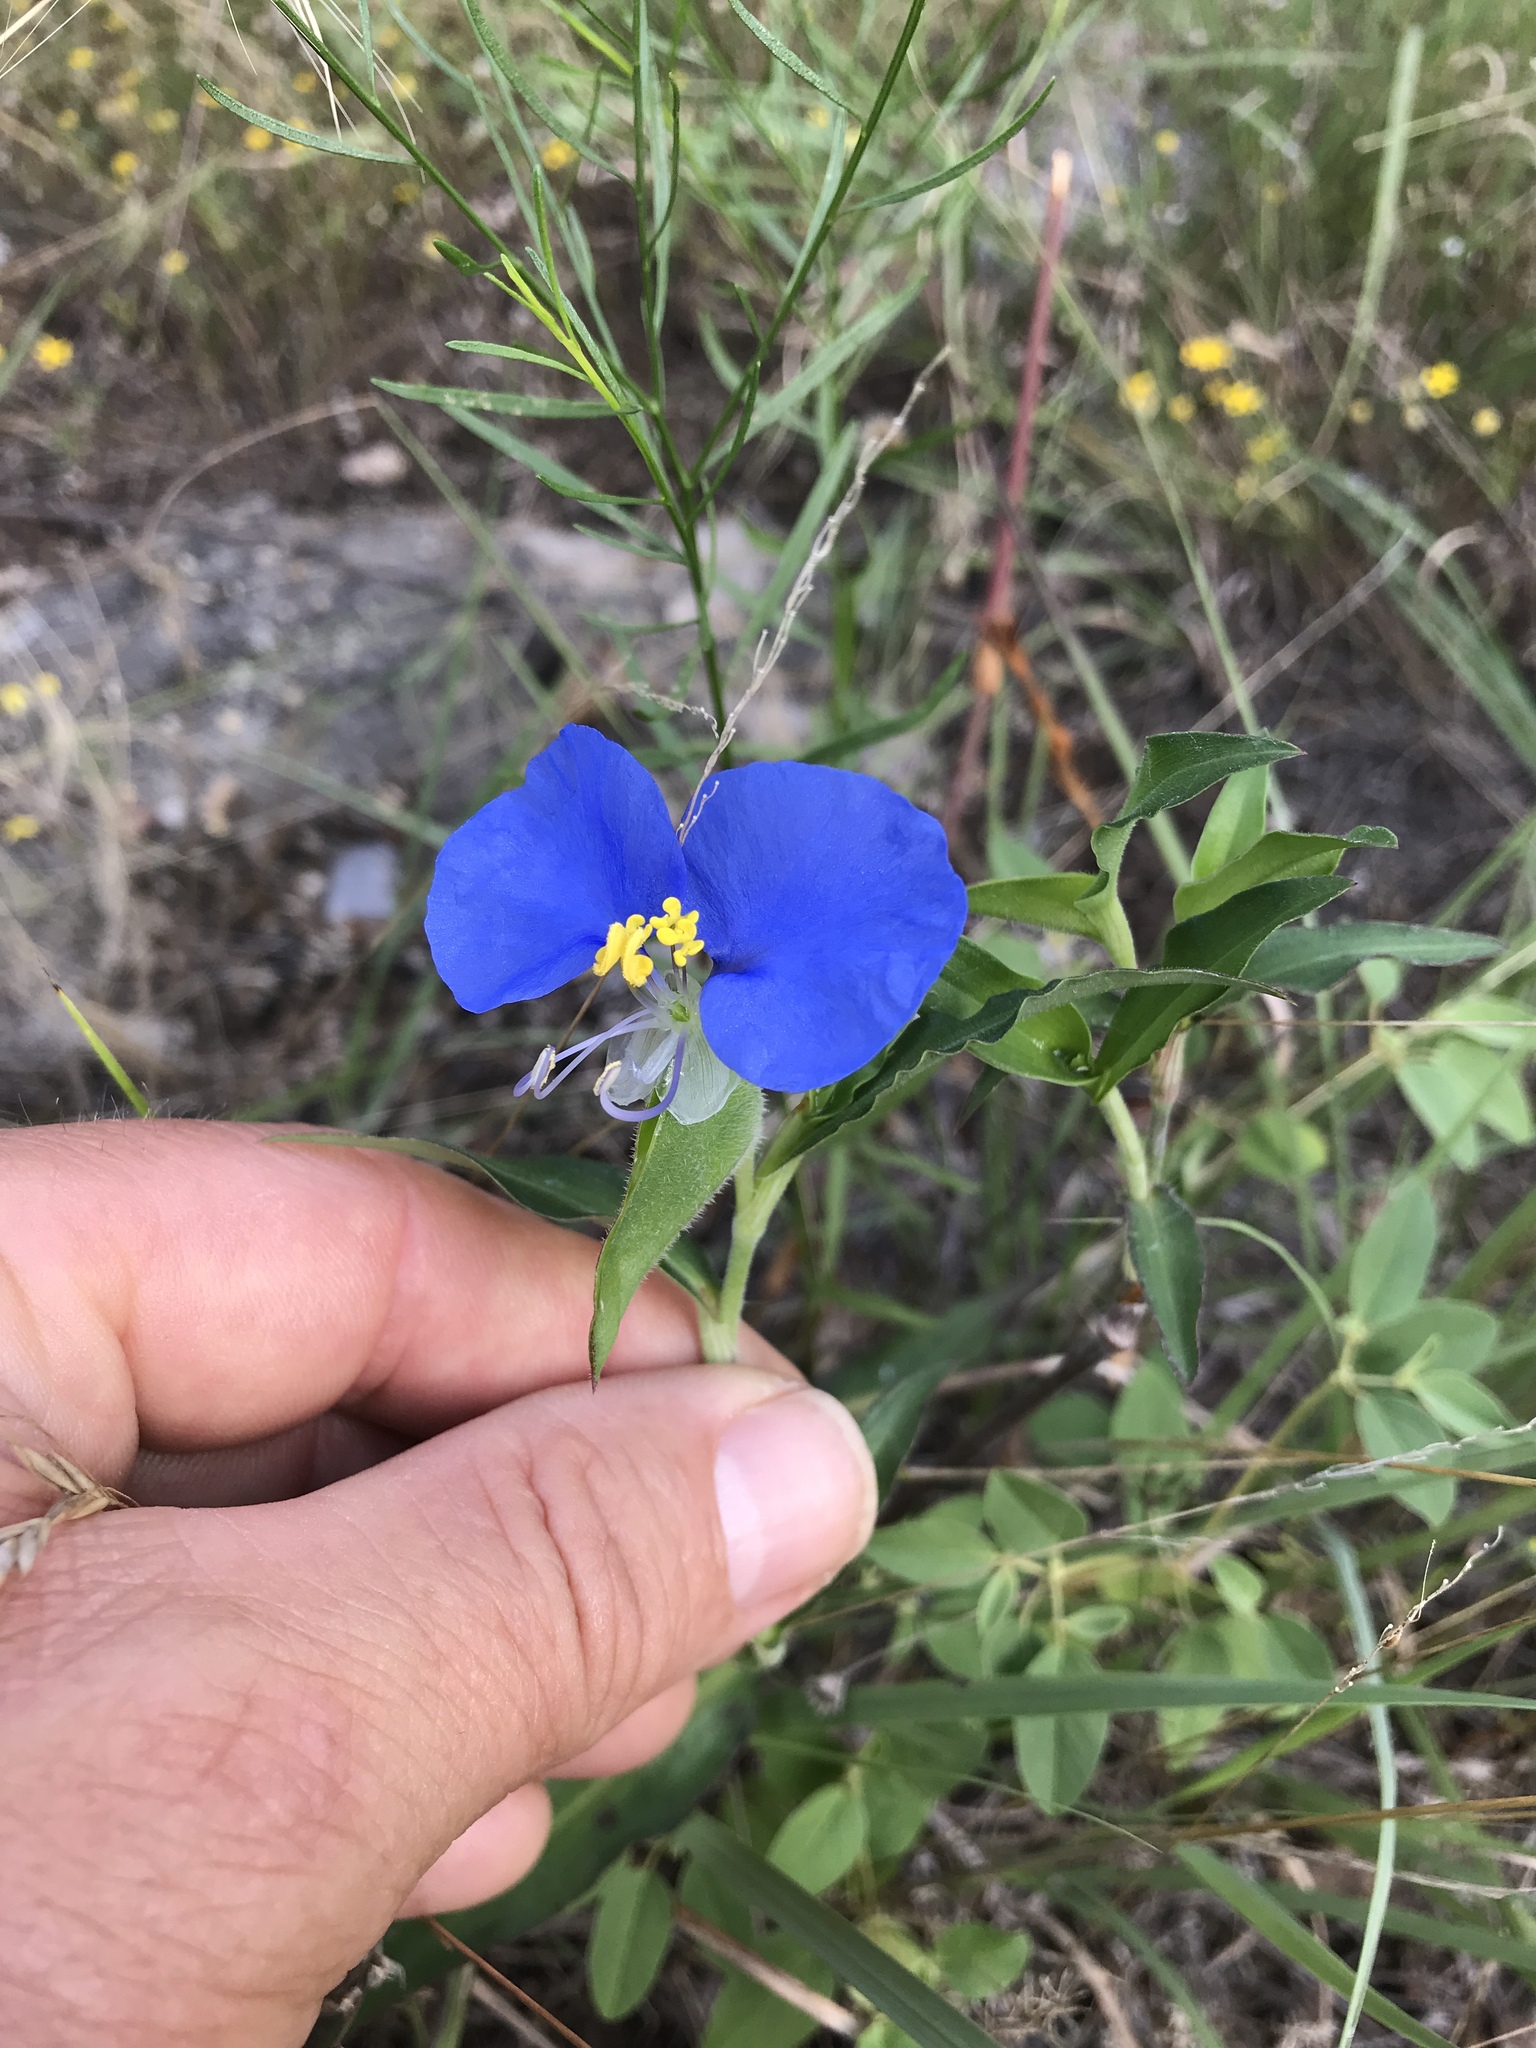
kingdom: Plantae
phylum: Tracheophyta
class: Liliopsida
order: Commelinales
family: Commelinaceae
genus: Commelina
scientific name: Commelina erecta
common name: Blousel blommetjie
